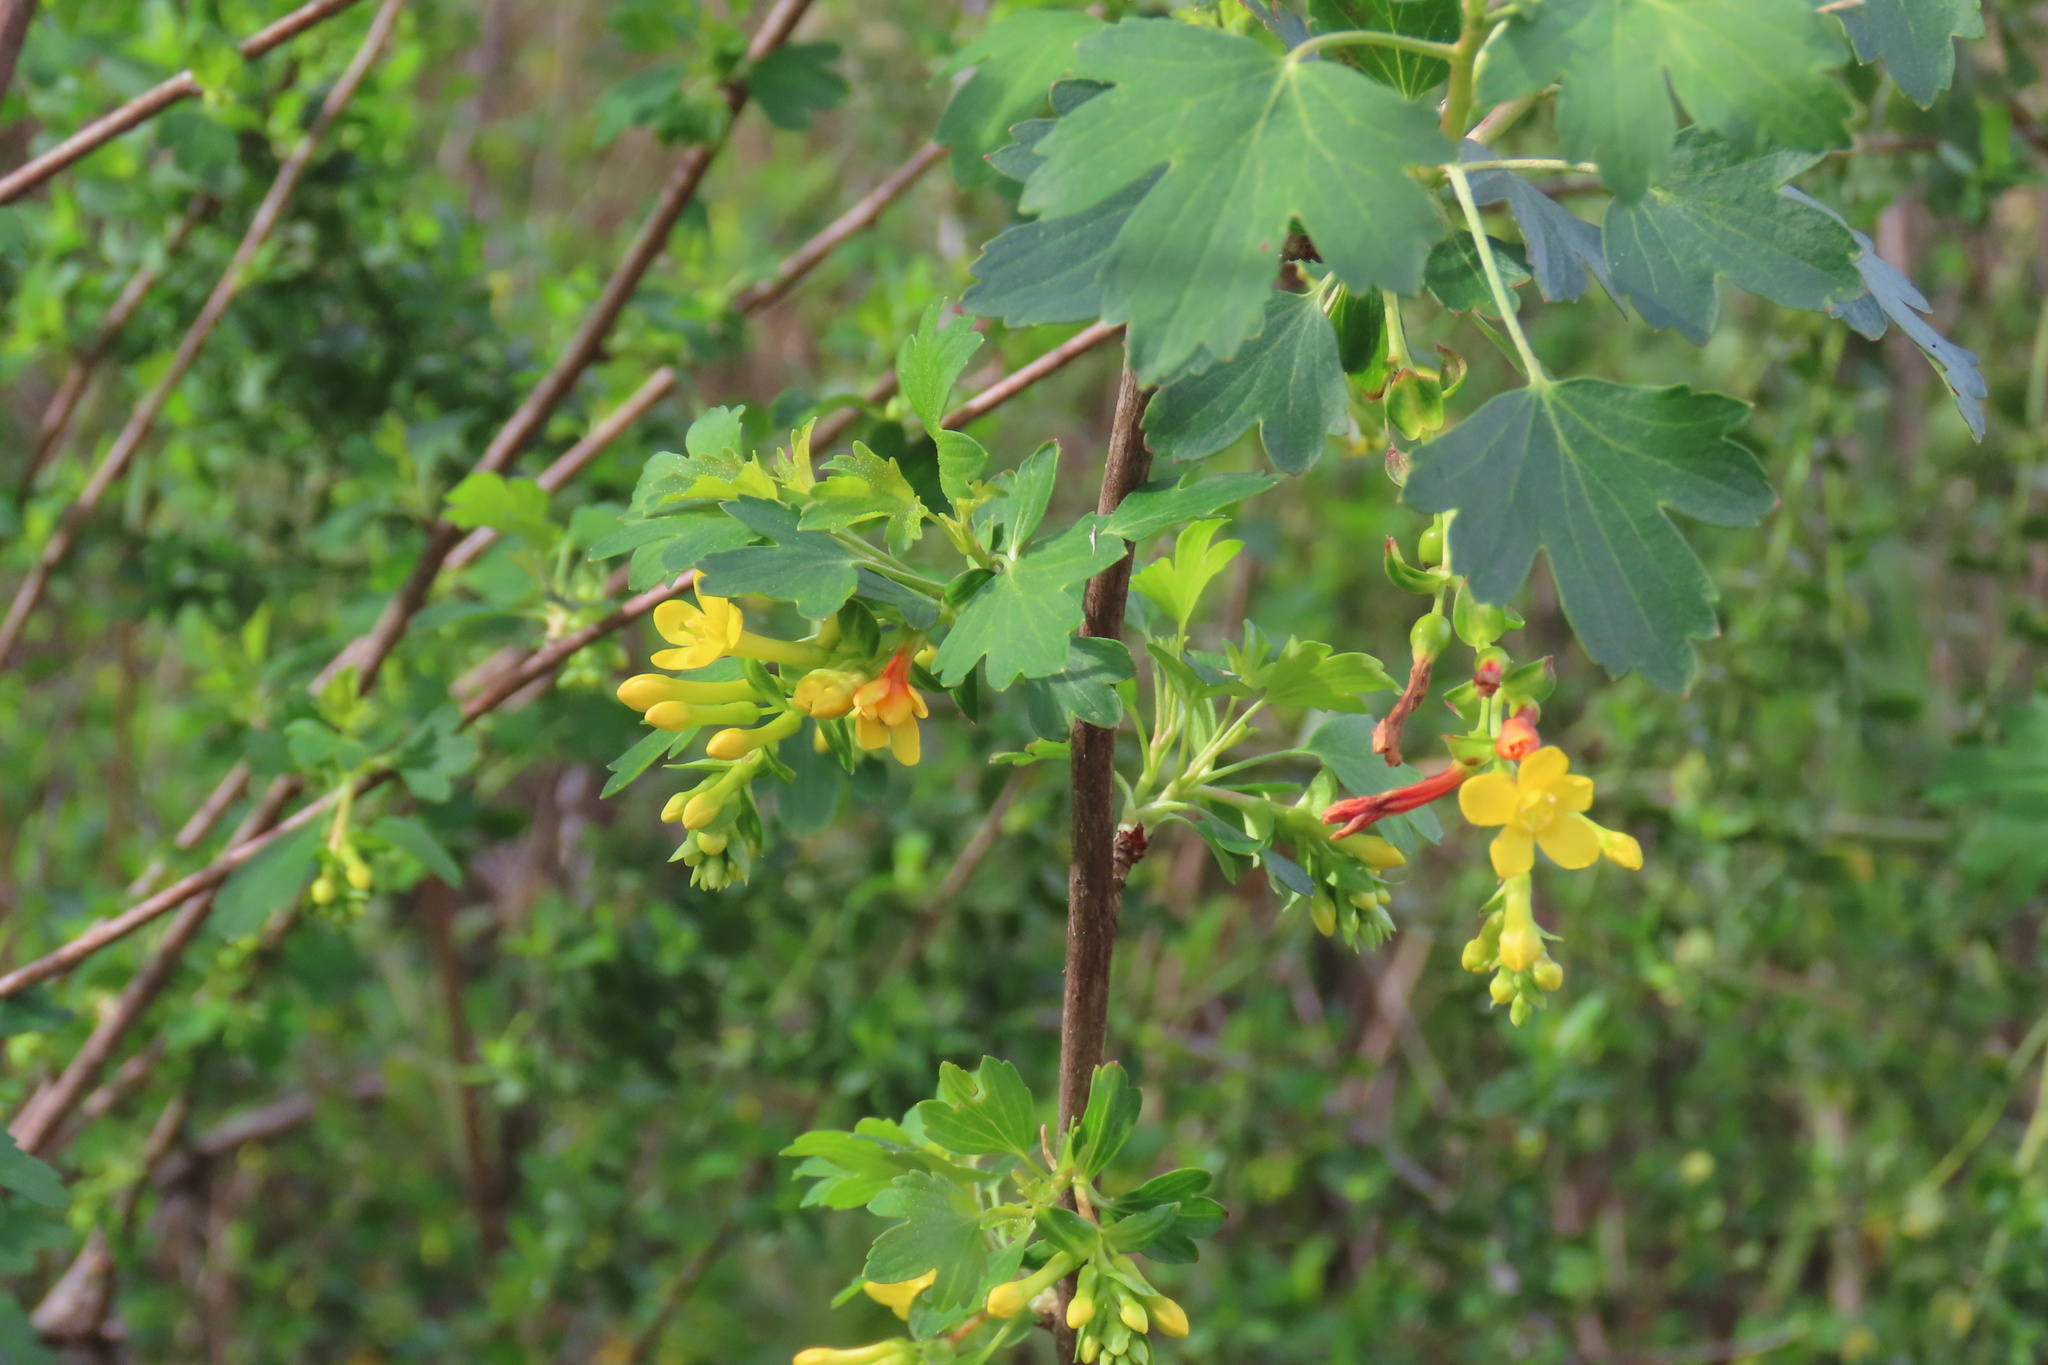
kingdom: Plantae
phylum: Tracheophyta
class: Magnoliopsida
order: Saxifragales
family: Grossulariaceae
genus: Ribes
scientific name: Ribes aureum
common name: Golden currant
